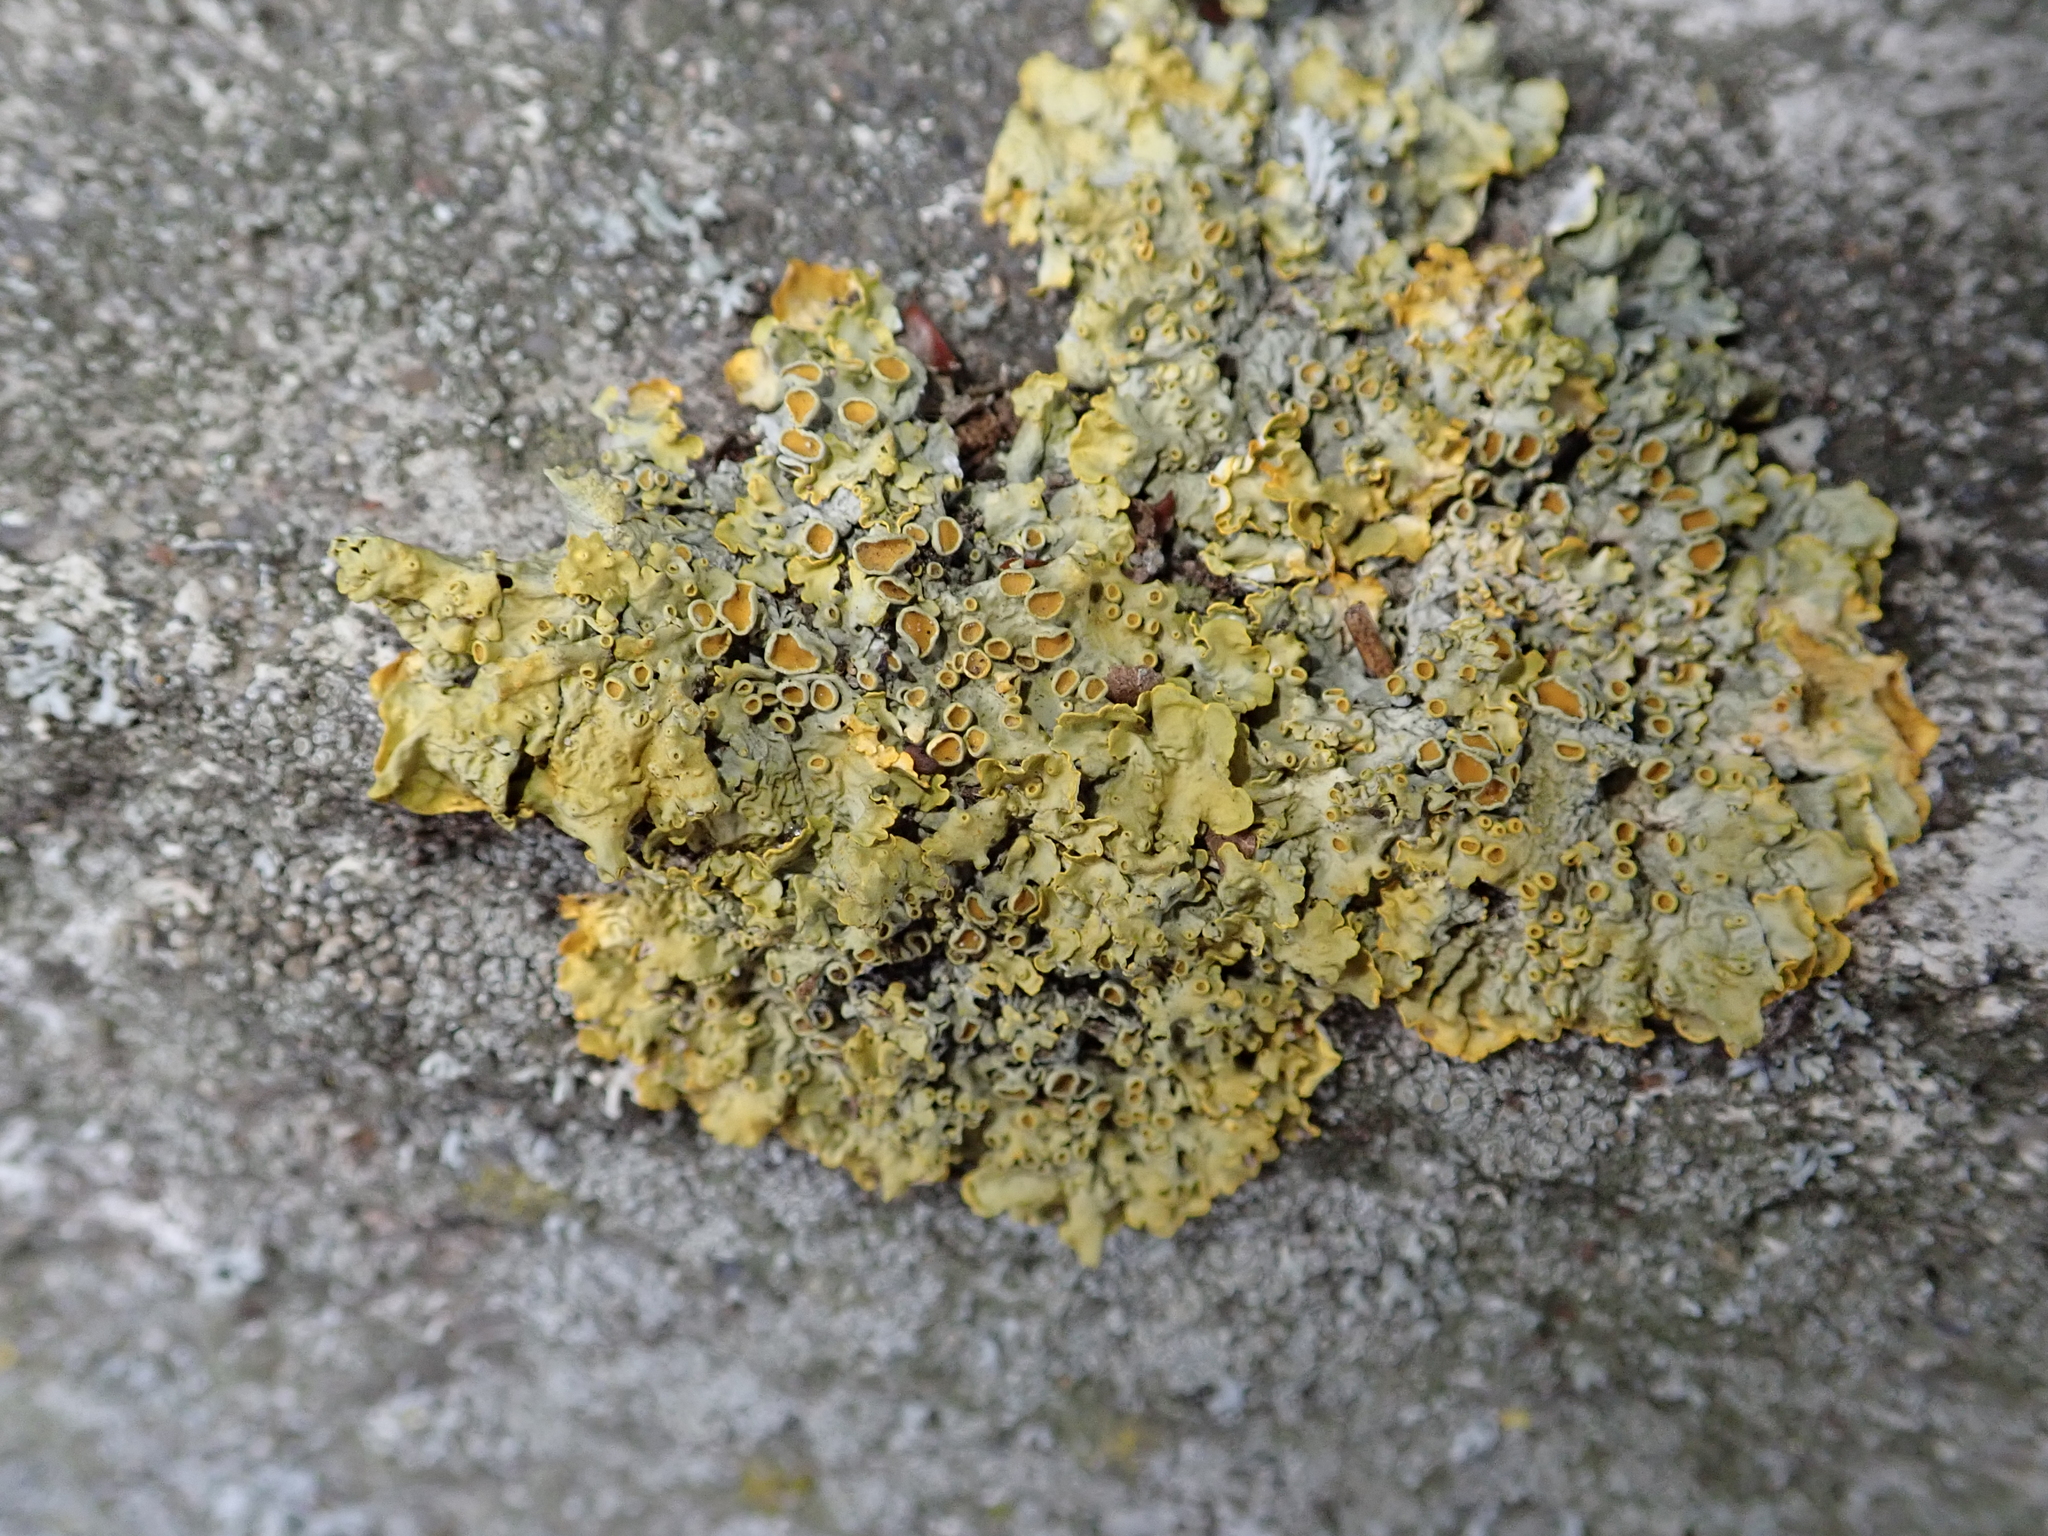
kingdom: Fungi
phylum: Ascomycota
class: Lecanoromycetes
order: Teloschistales
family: Teloschistaceae
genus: Xanthoria
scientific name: Xanthoria parietina
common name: Common orange lichen
